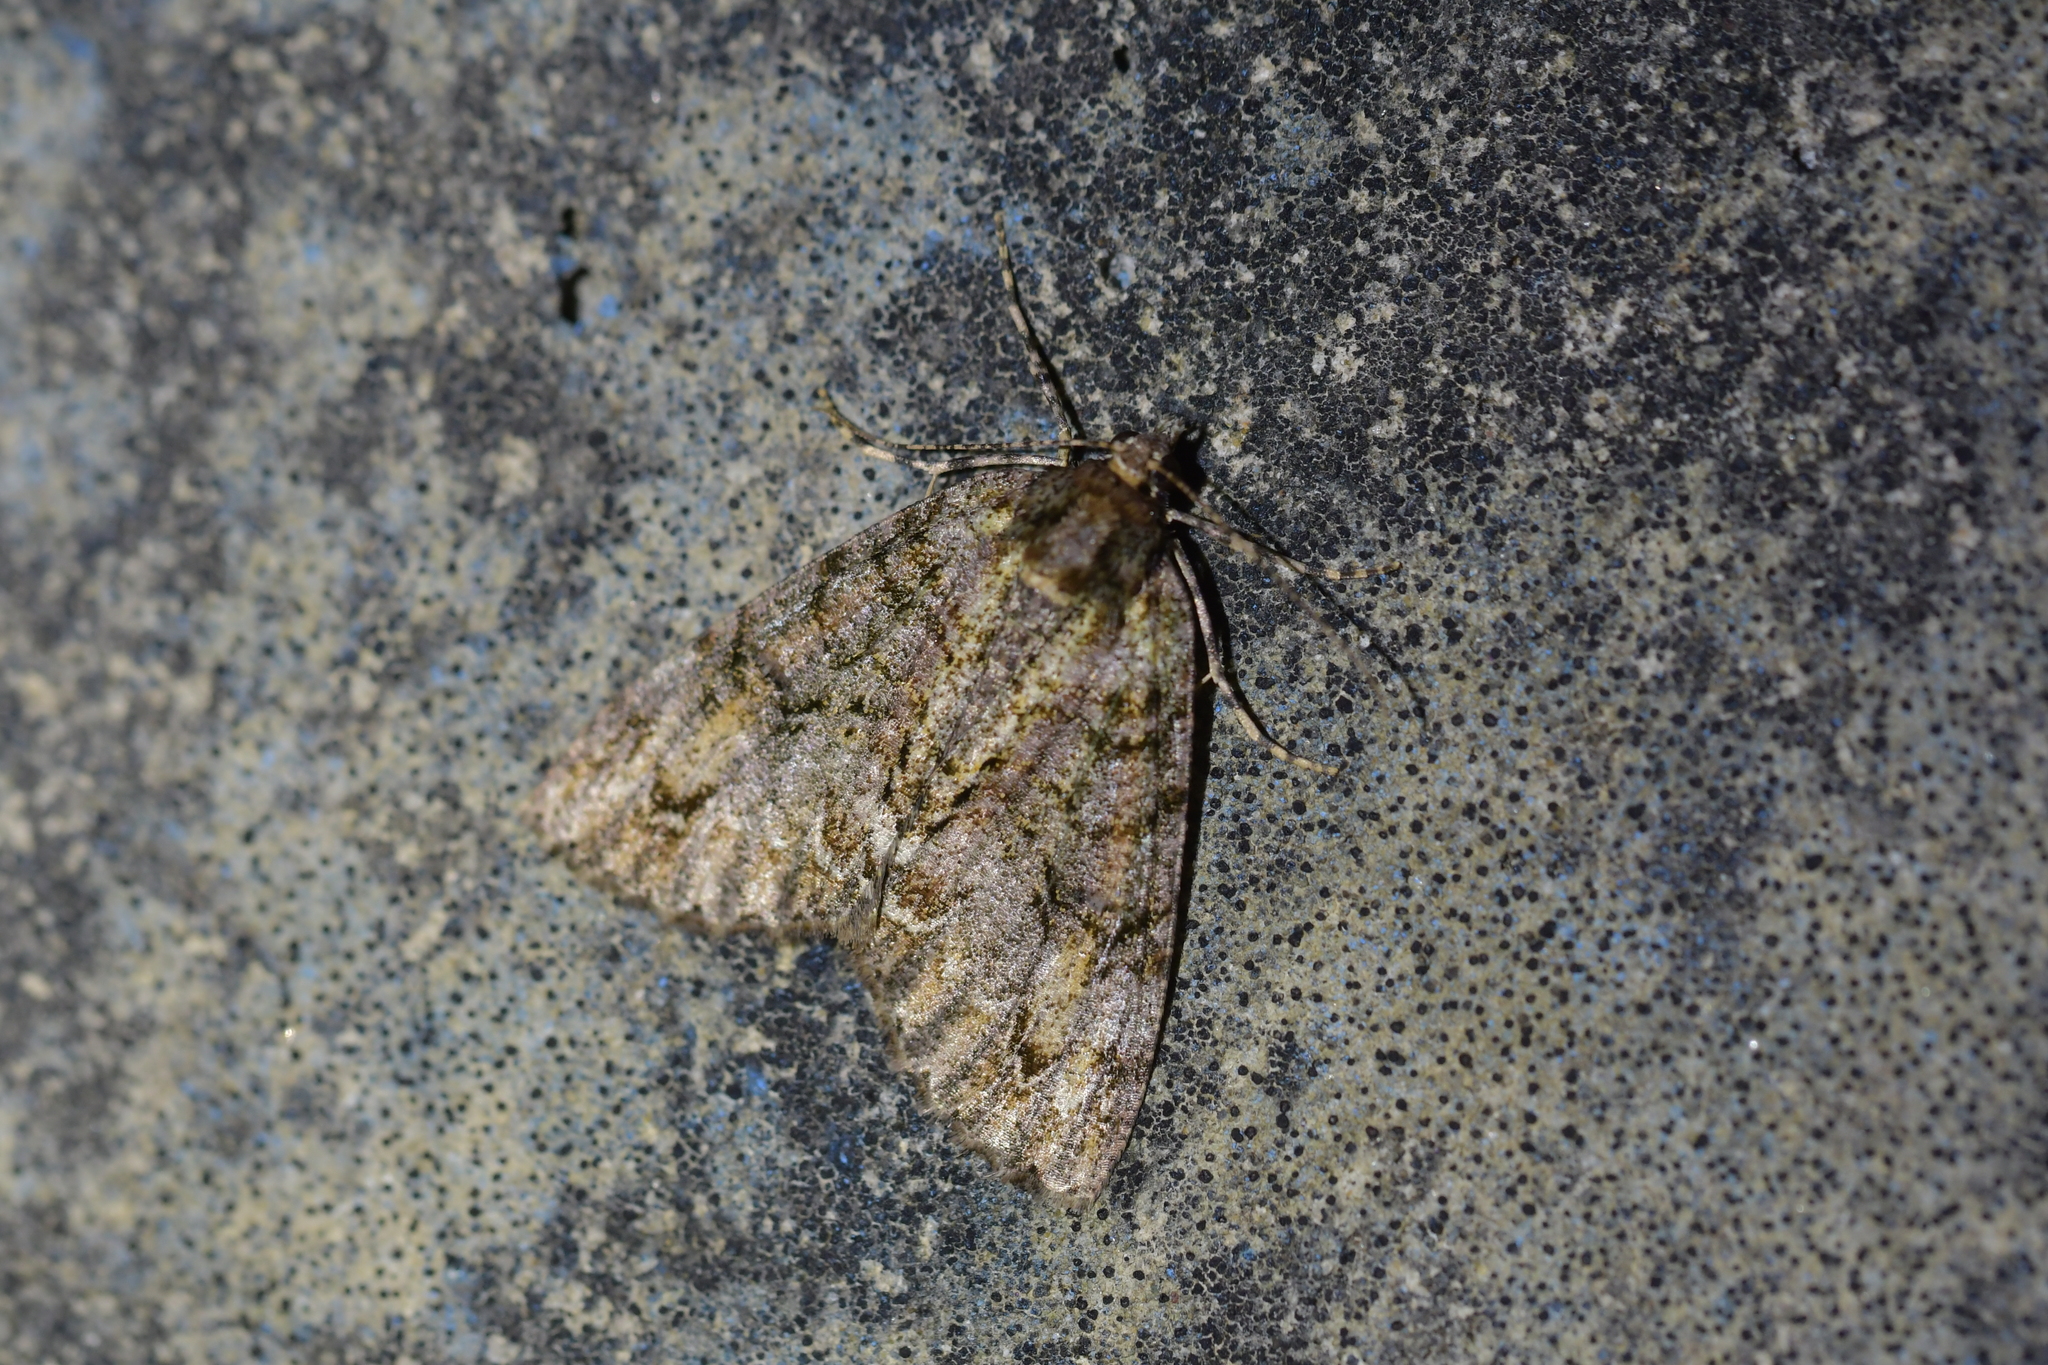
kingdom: Animalia
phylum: Arthropoda
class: Insecta
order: Lepidoptera
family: Geometridae
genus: Pseudocoremia
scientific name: Pseudocoremia suavis
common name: Common forest looper
